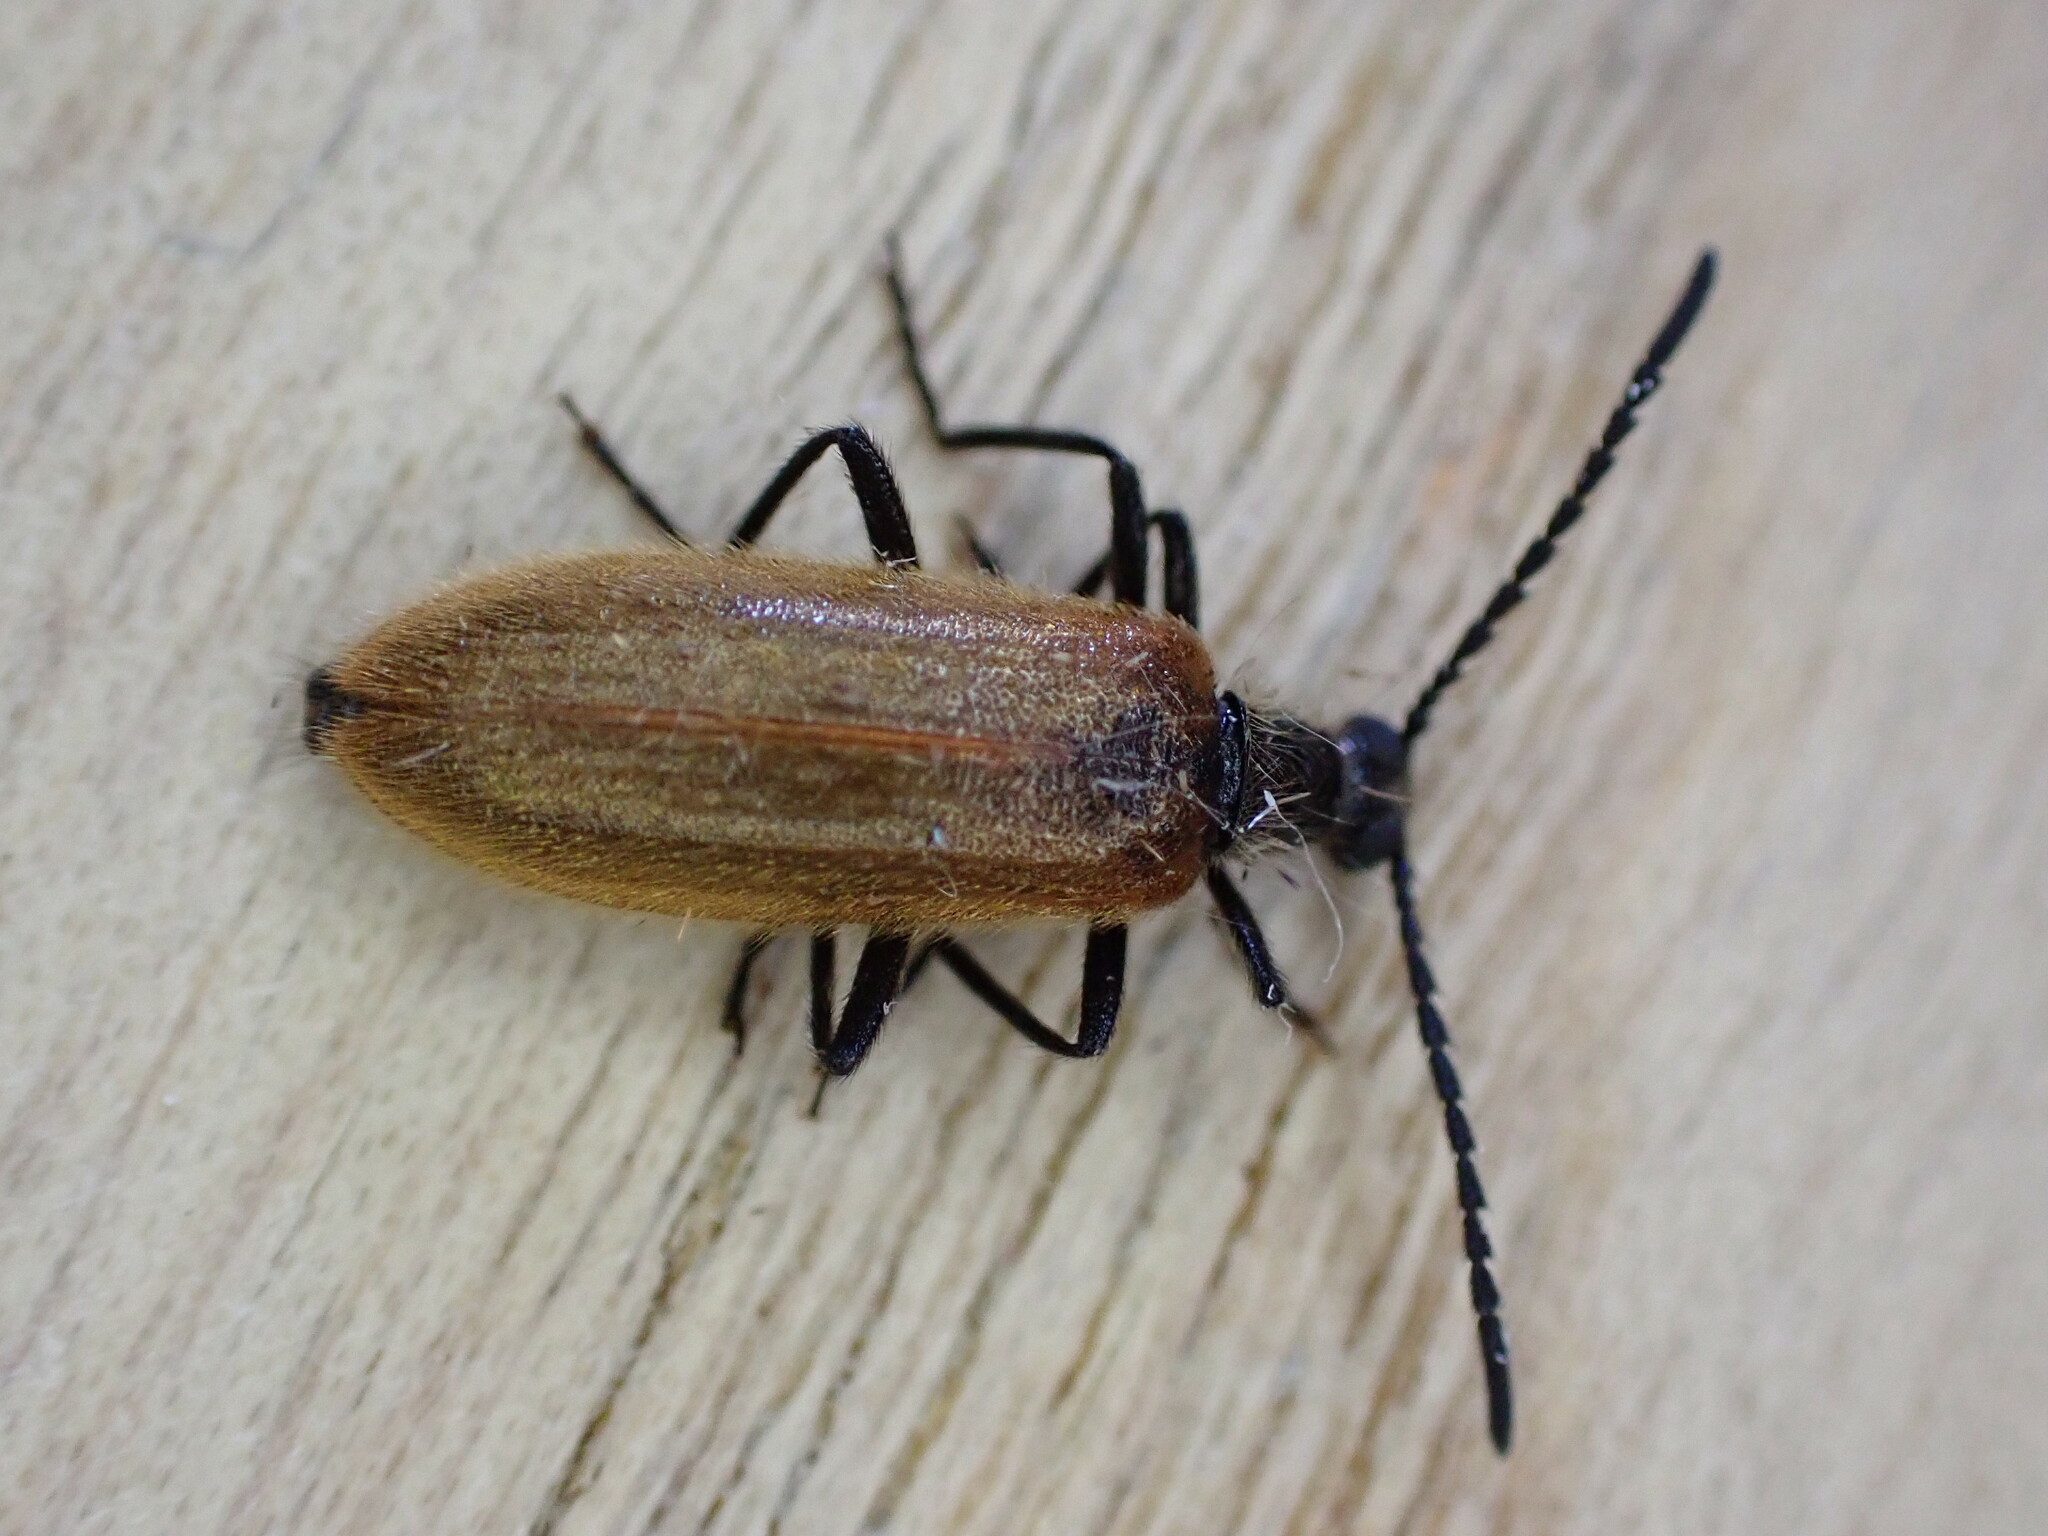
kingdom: Animalia
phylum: Arthropoda
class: Insecta
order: Coleoptera
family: Tenebrionidae
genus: Lagria
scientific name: Lagria hirta
